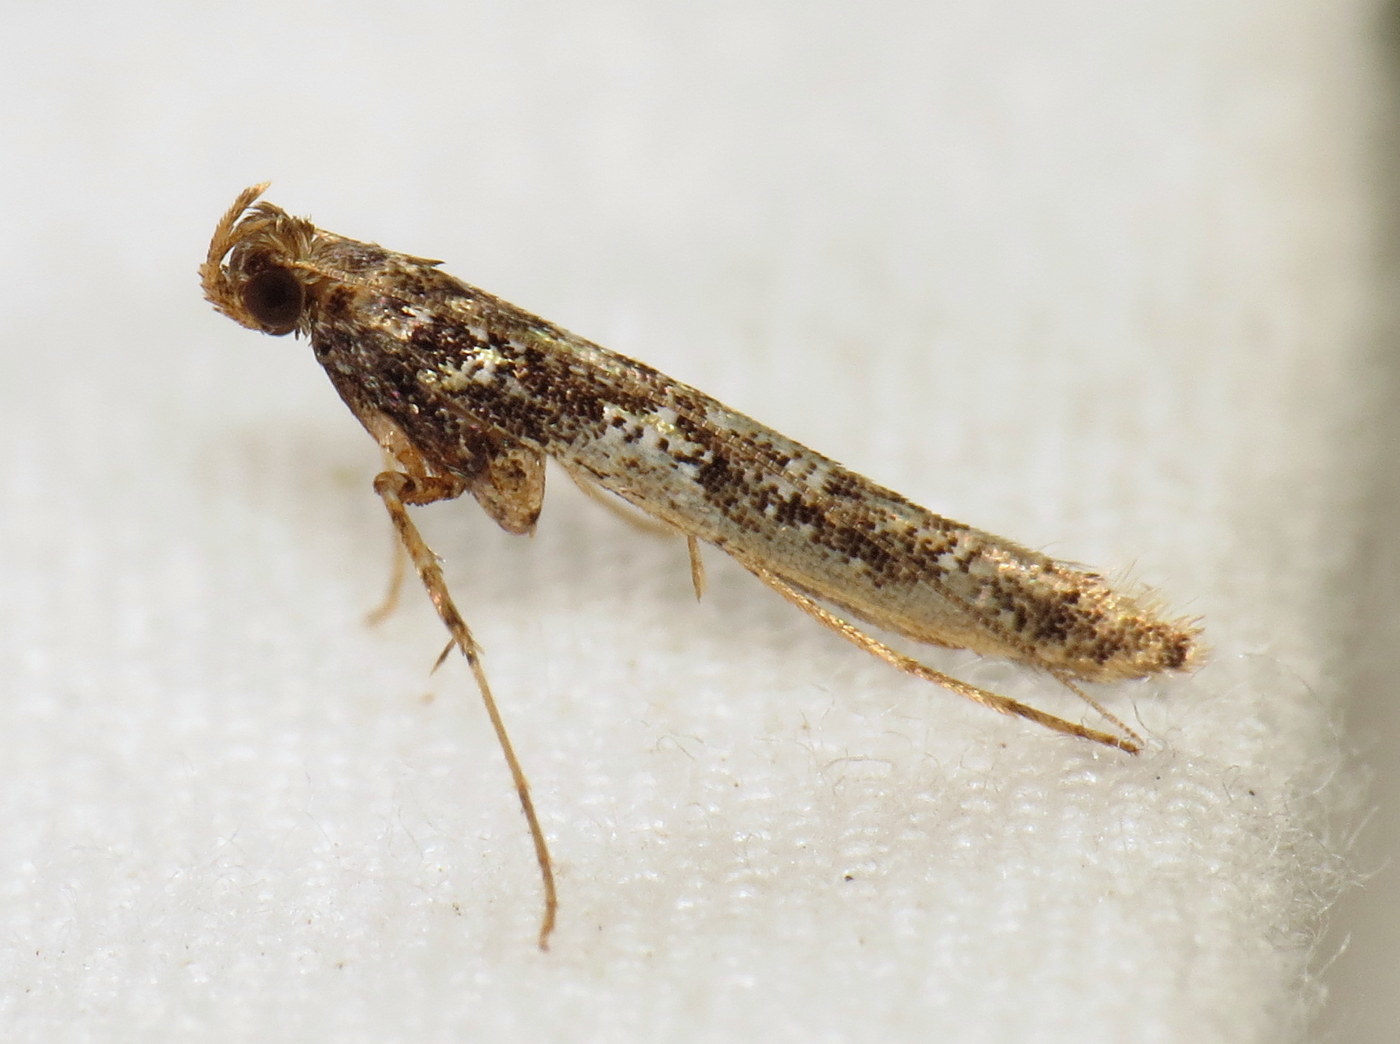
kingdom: Animalia
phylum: Arthropoda
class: Insecta
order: Lepidoptera
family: Gracillariidae
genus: Caloptilia
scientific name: Caloptilia serotinella
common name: Cherry leafroller moth
